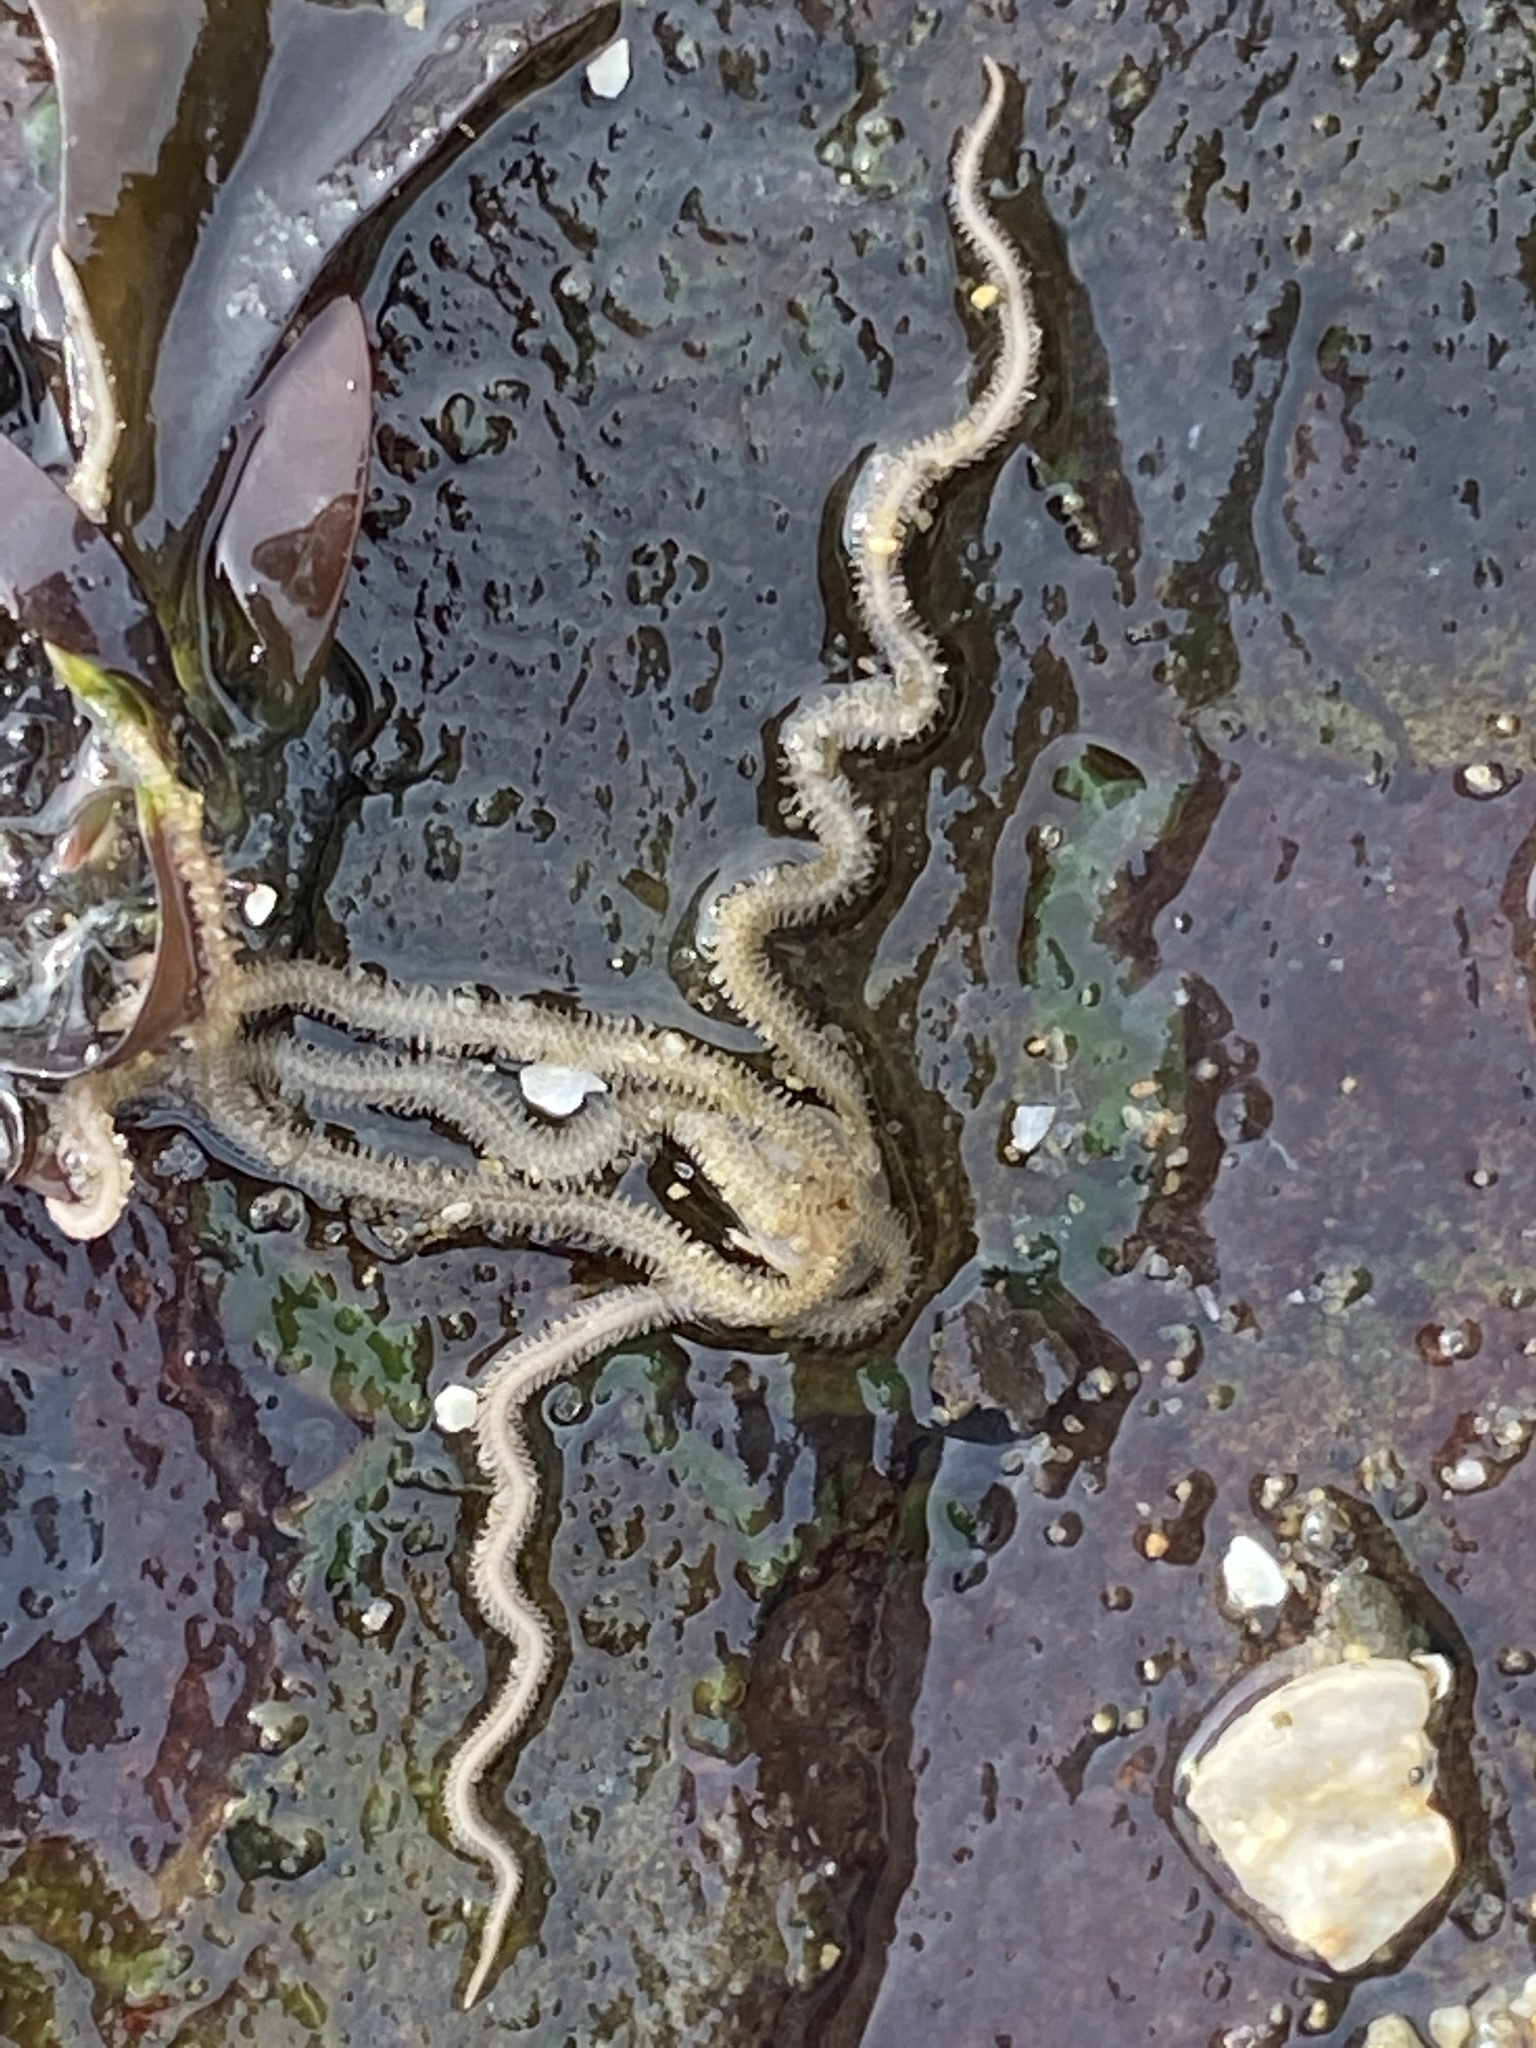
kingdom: Animalia
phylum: Echinodermata
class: Ophiuroidea
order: Amphilepidida
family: Amphiuridae
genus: Amphiodia
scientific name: Amphiodia occidentalis
